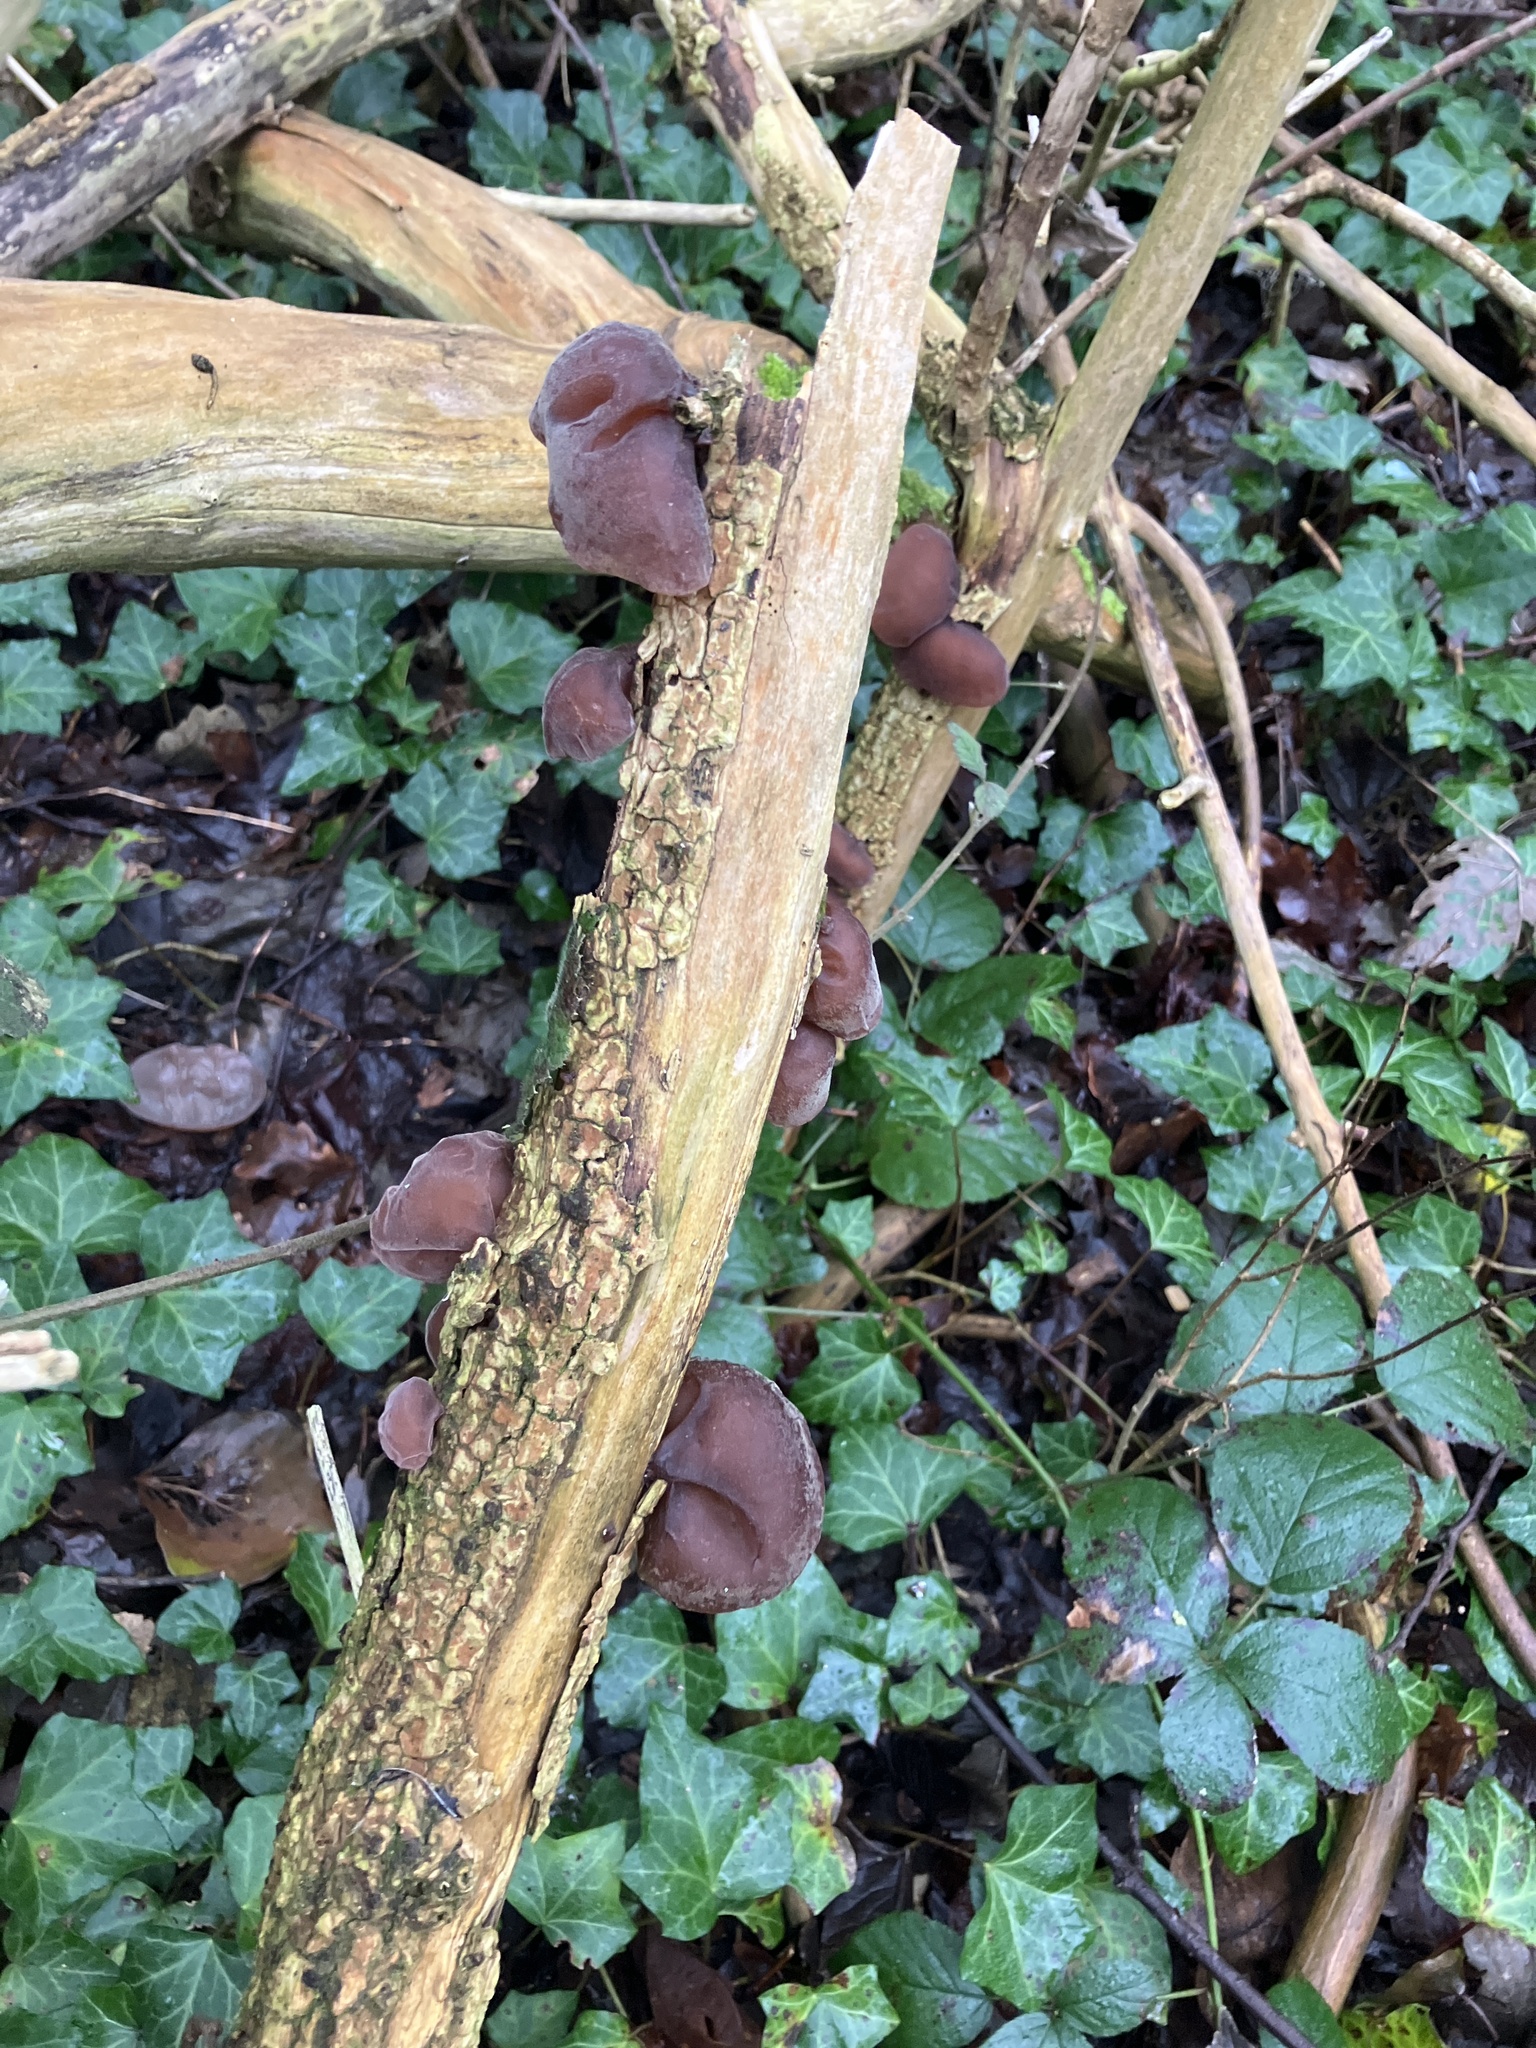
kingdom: Fungi
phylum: Basidiomycota
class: Agaricomycetes
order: Auriculariales
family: Auriculariaceae
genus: Auricularia
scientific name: Auricularia auricula-judae
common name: Jelly ear
